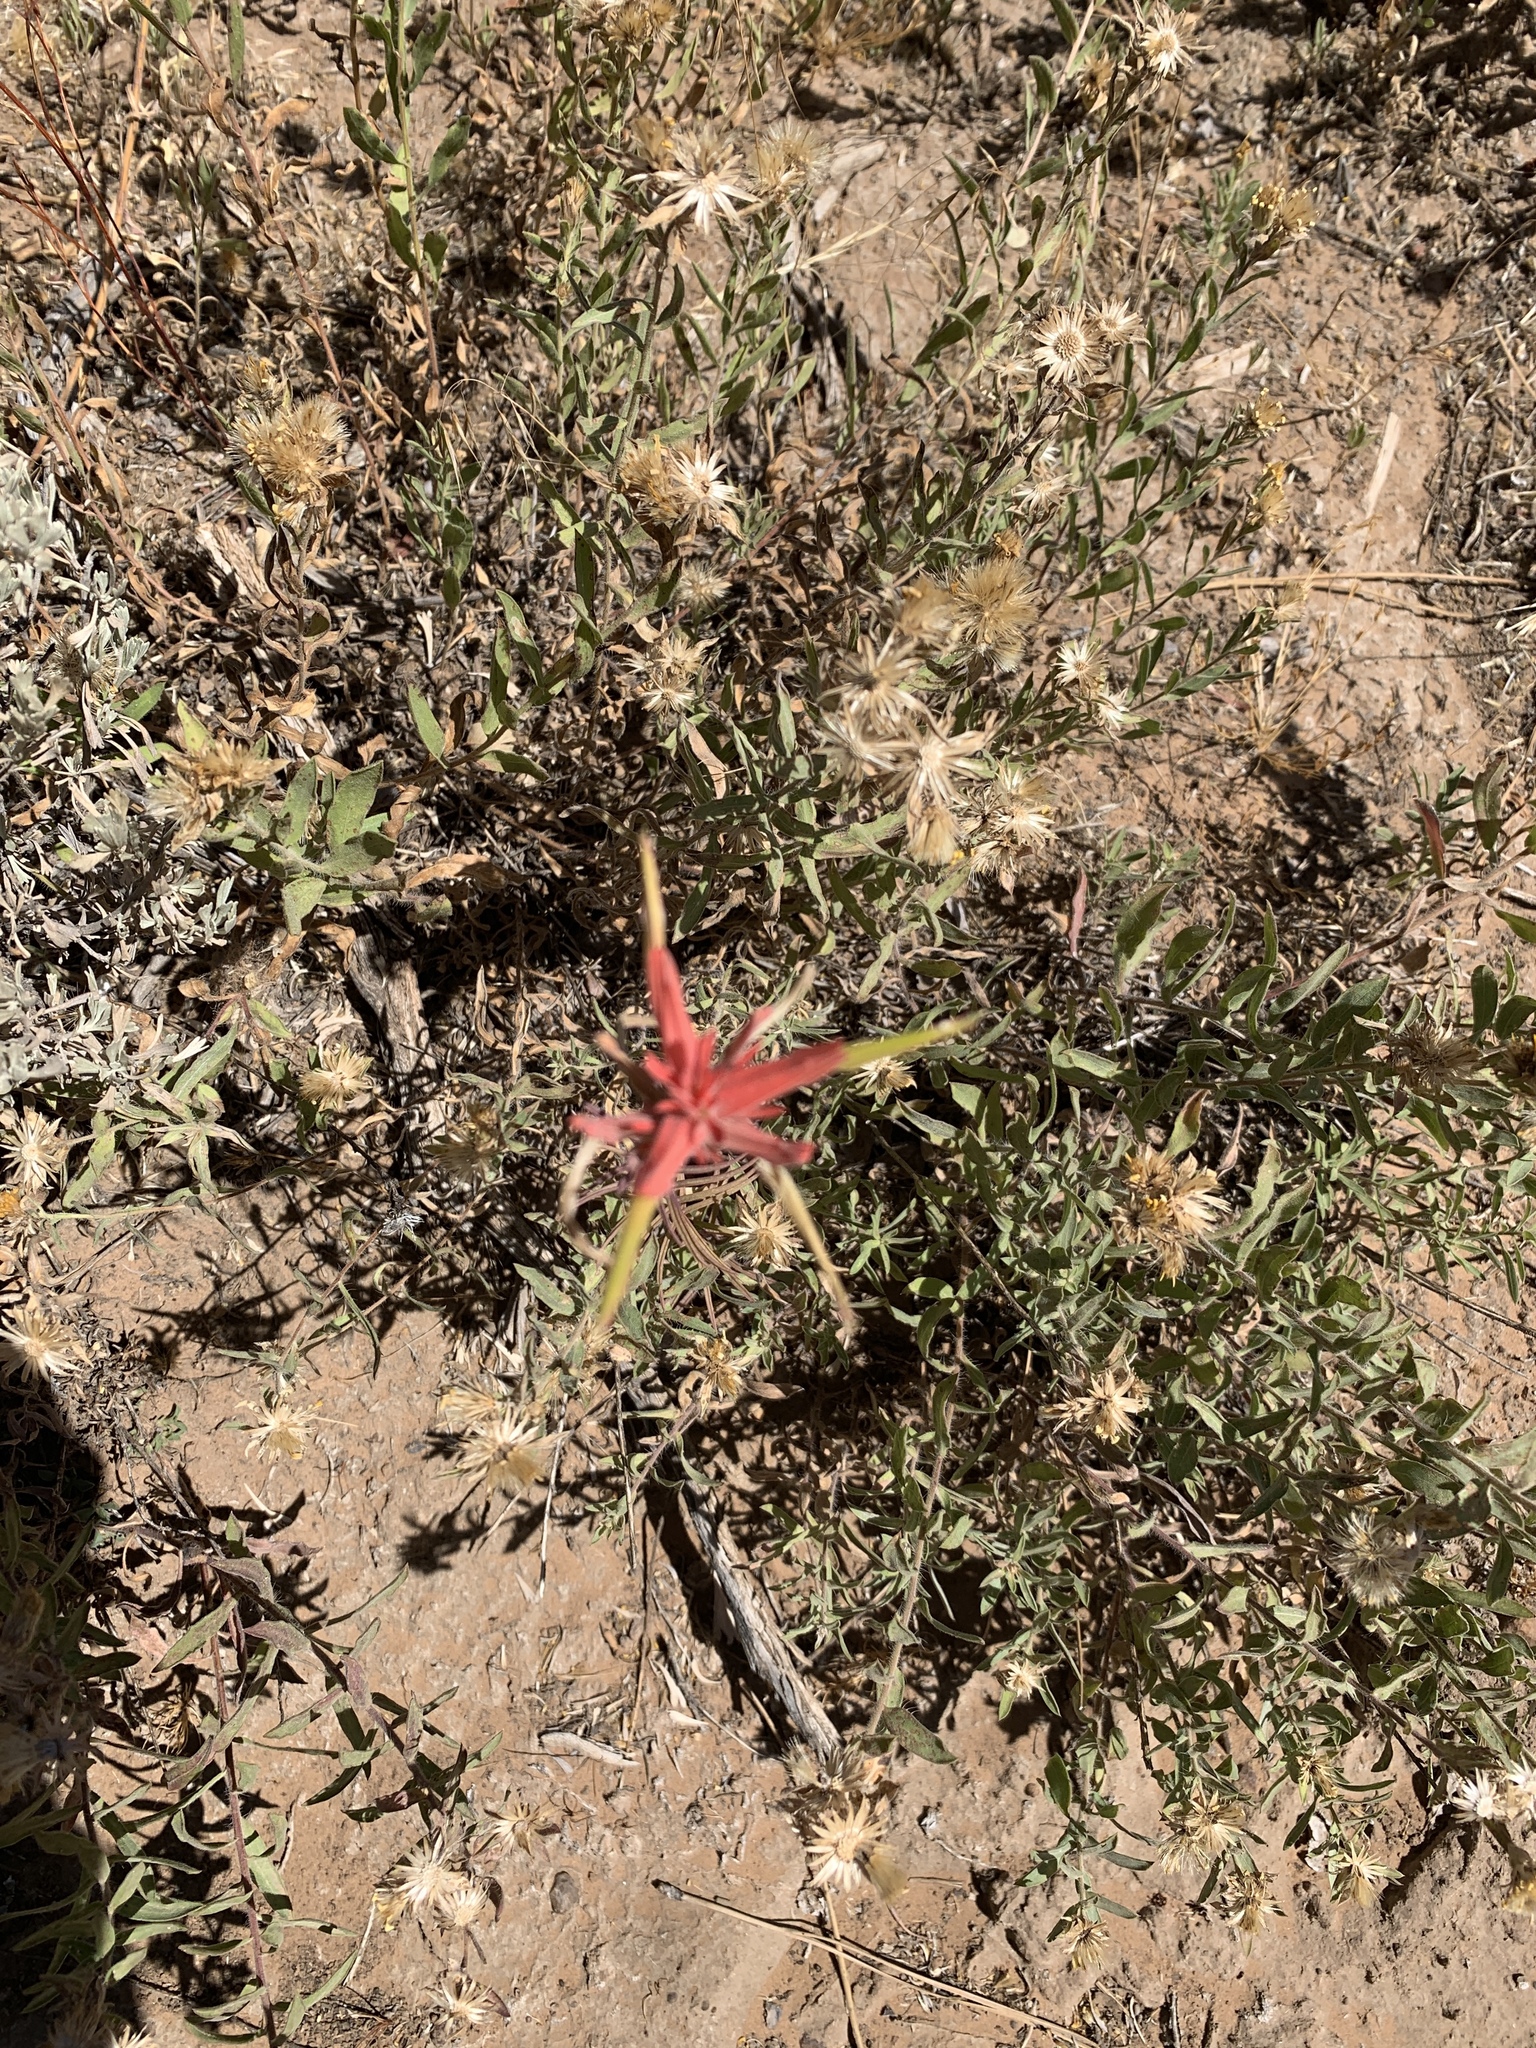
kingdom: Plantae
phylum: Tracheophyta
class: Magnoliopsida
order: Lamiales
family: Orobanchaceae
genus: Castilleja
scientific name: Castilleja linariifolia
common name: Wyoming paintbrush
